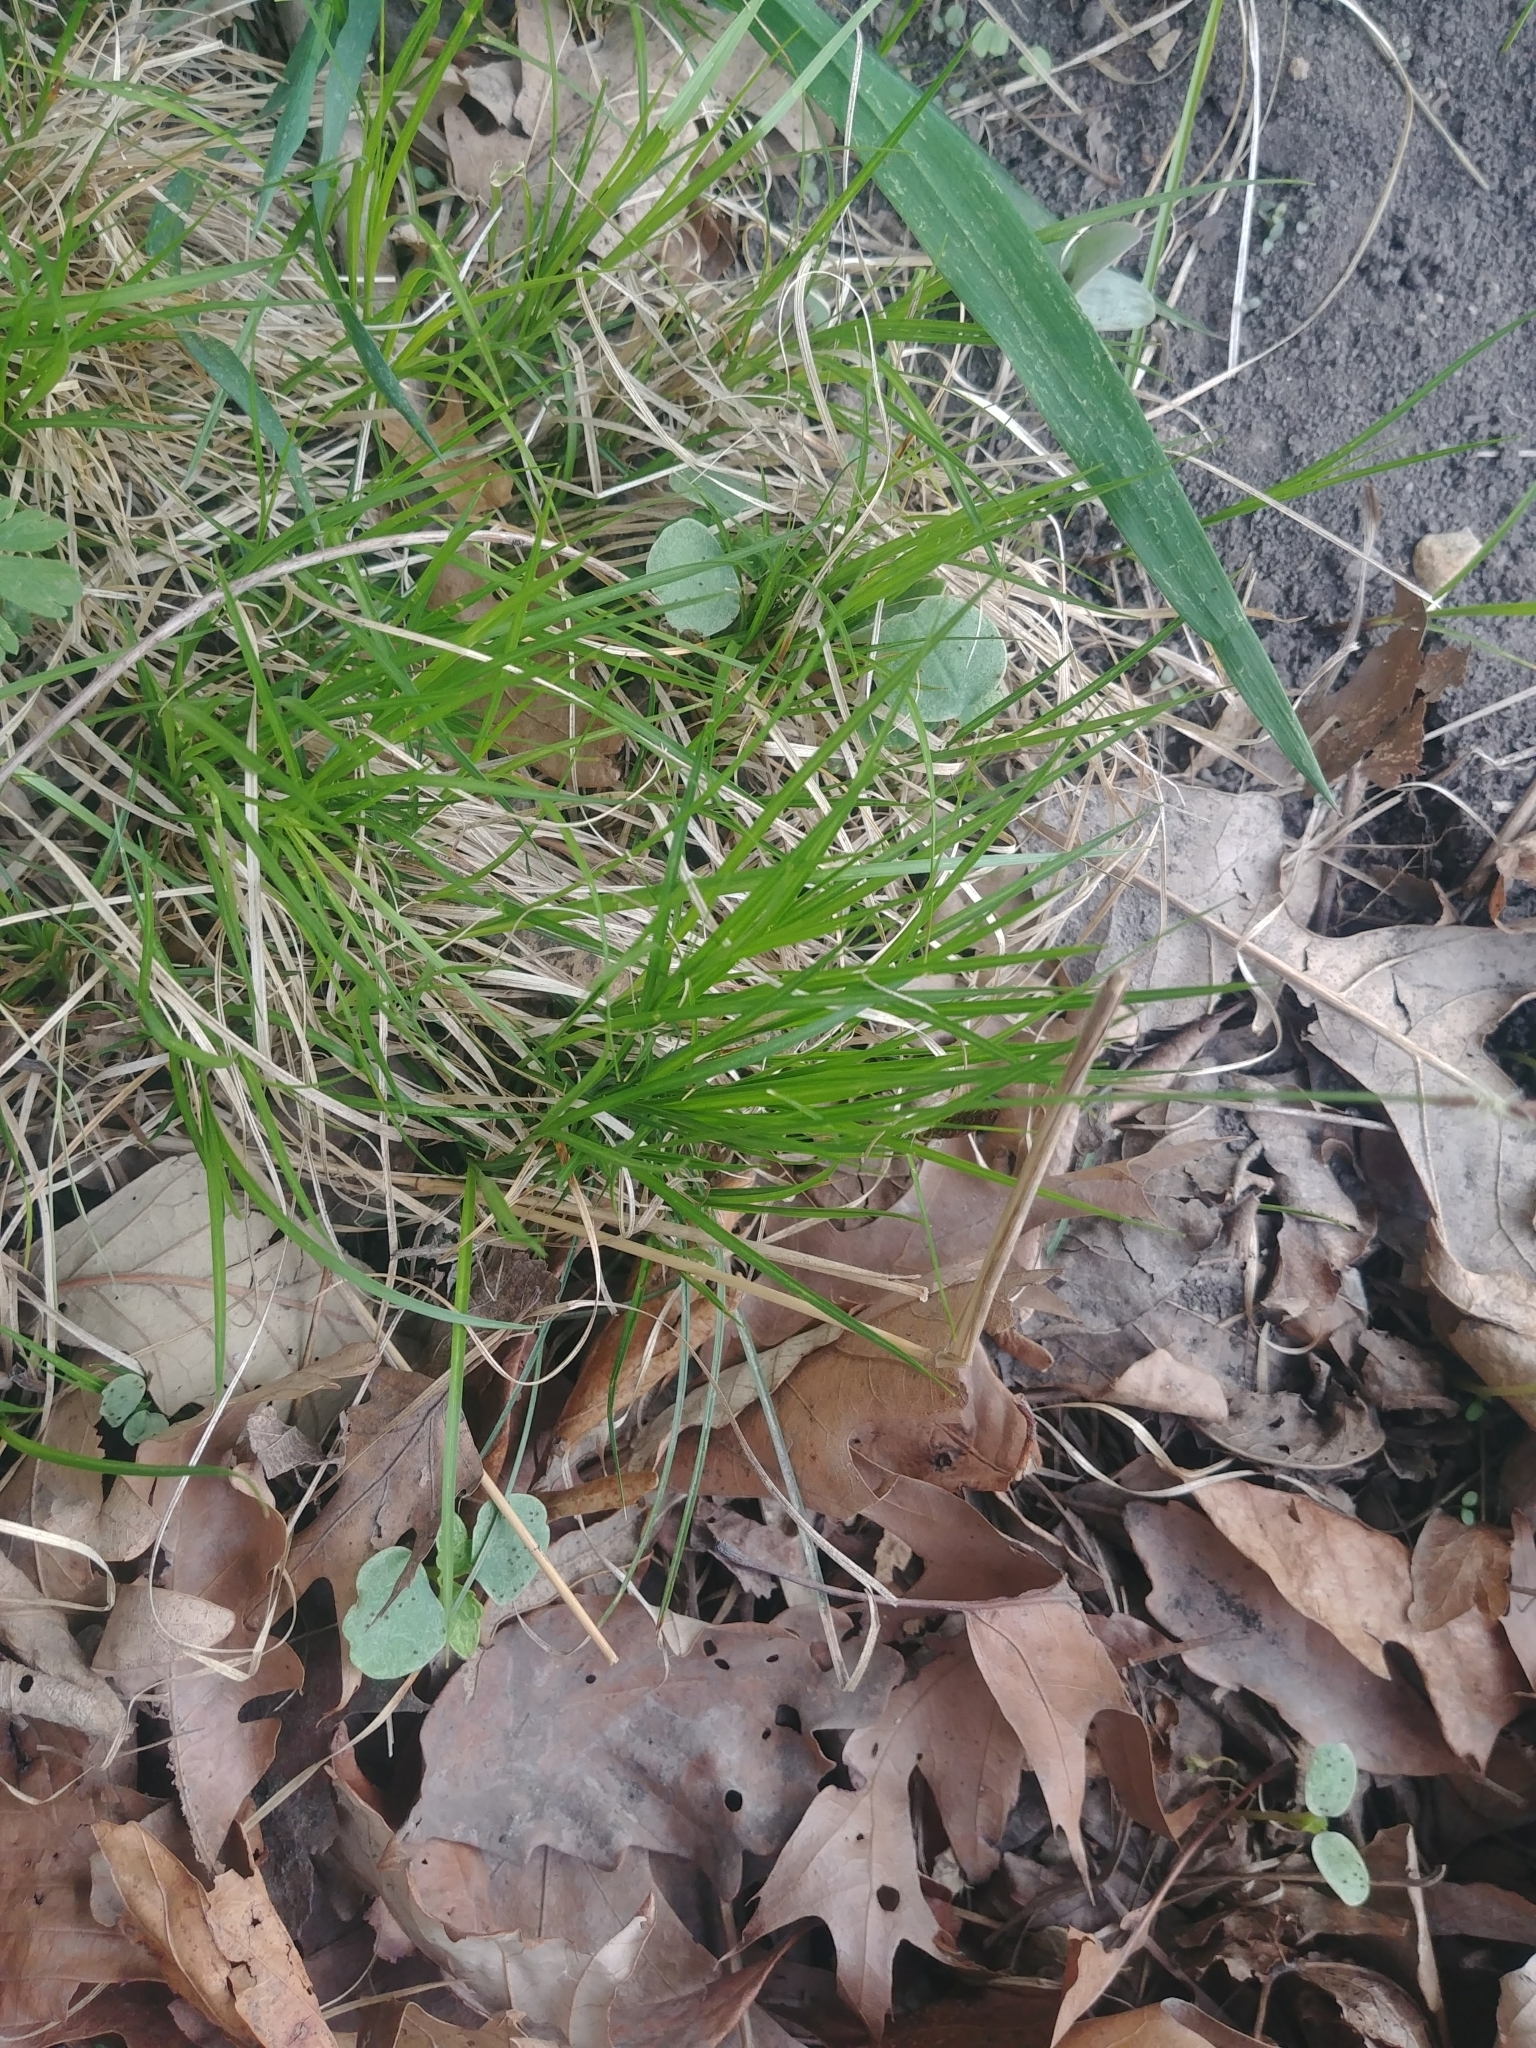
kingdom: Plantae
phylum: Tracheophyta
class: Liliopsida
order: Poales
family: Cyperaceae
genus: Carex
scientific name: Carex pensylvanica
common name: Common oak sedge
